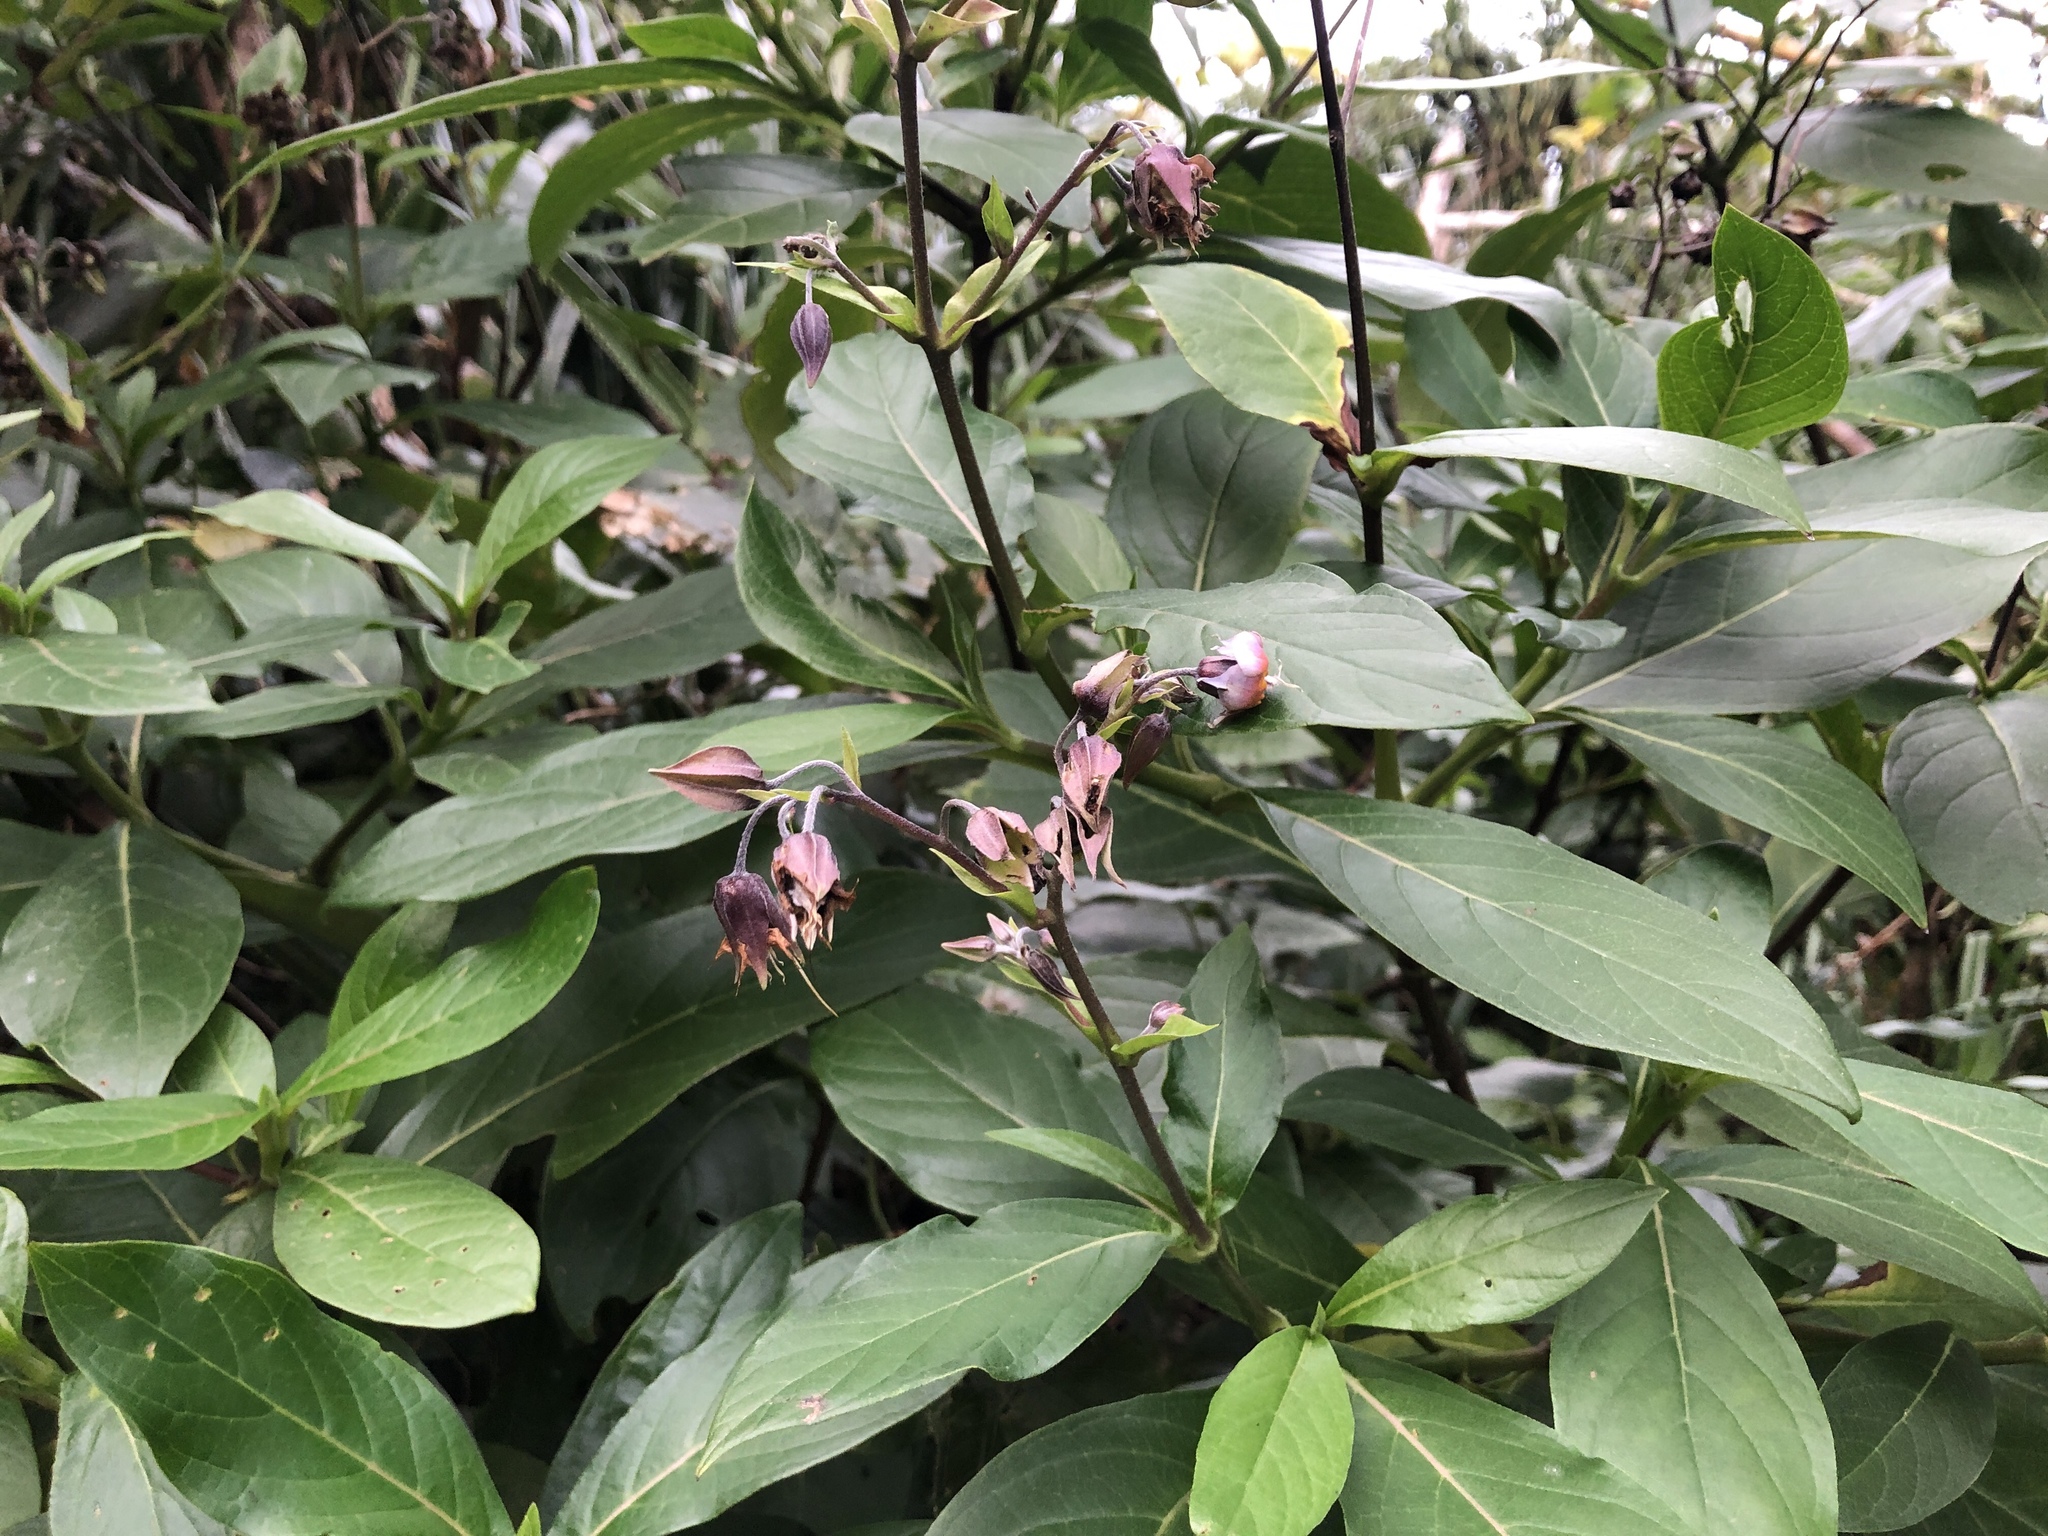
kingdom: Plantae
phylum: Tracheophyta
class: Magnoliopsida
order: Boraginales
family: Boraginaceae
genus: Trichodesma
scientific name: Trichodesma calycosum
